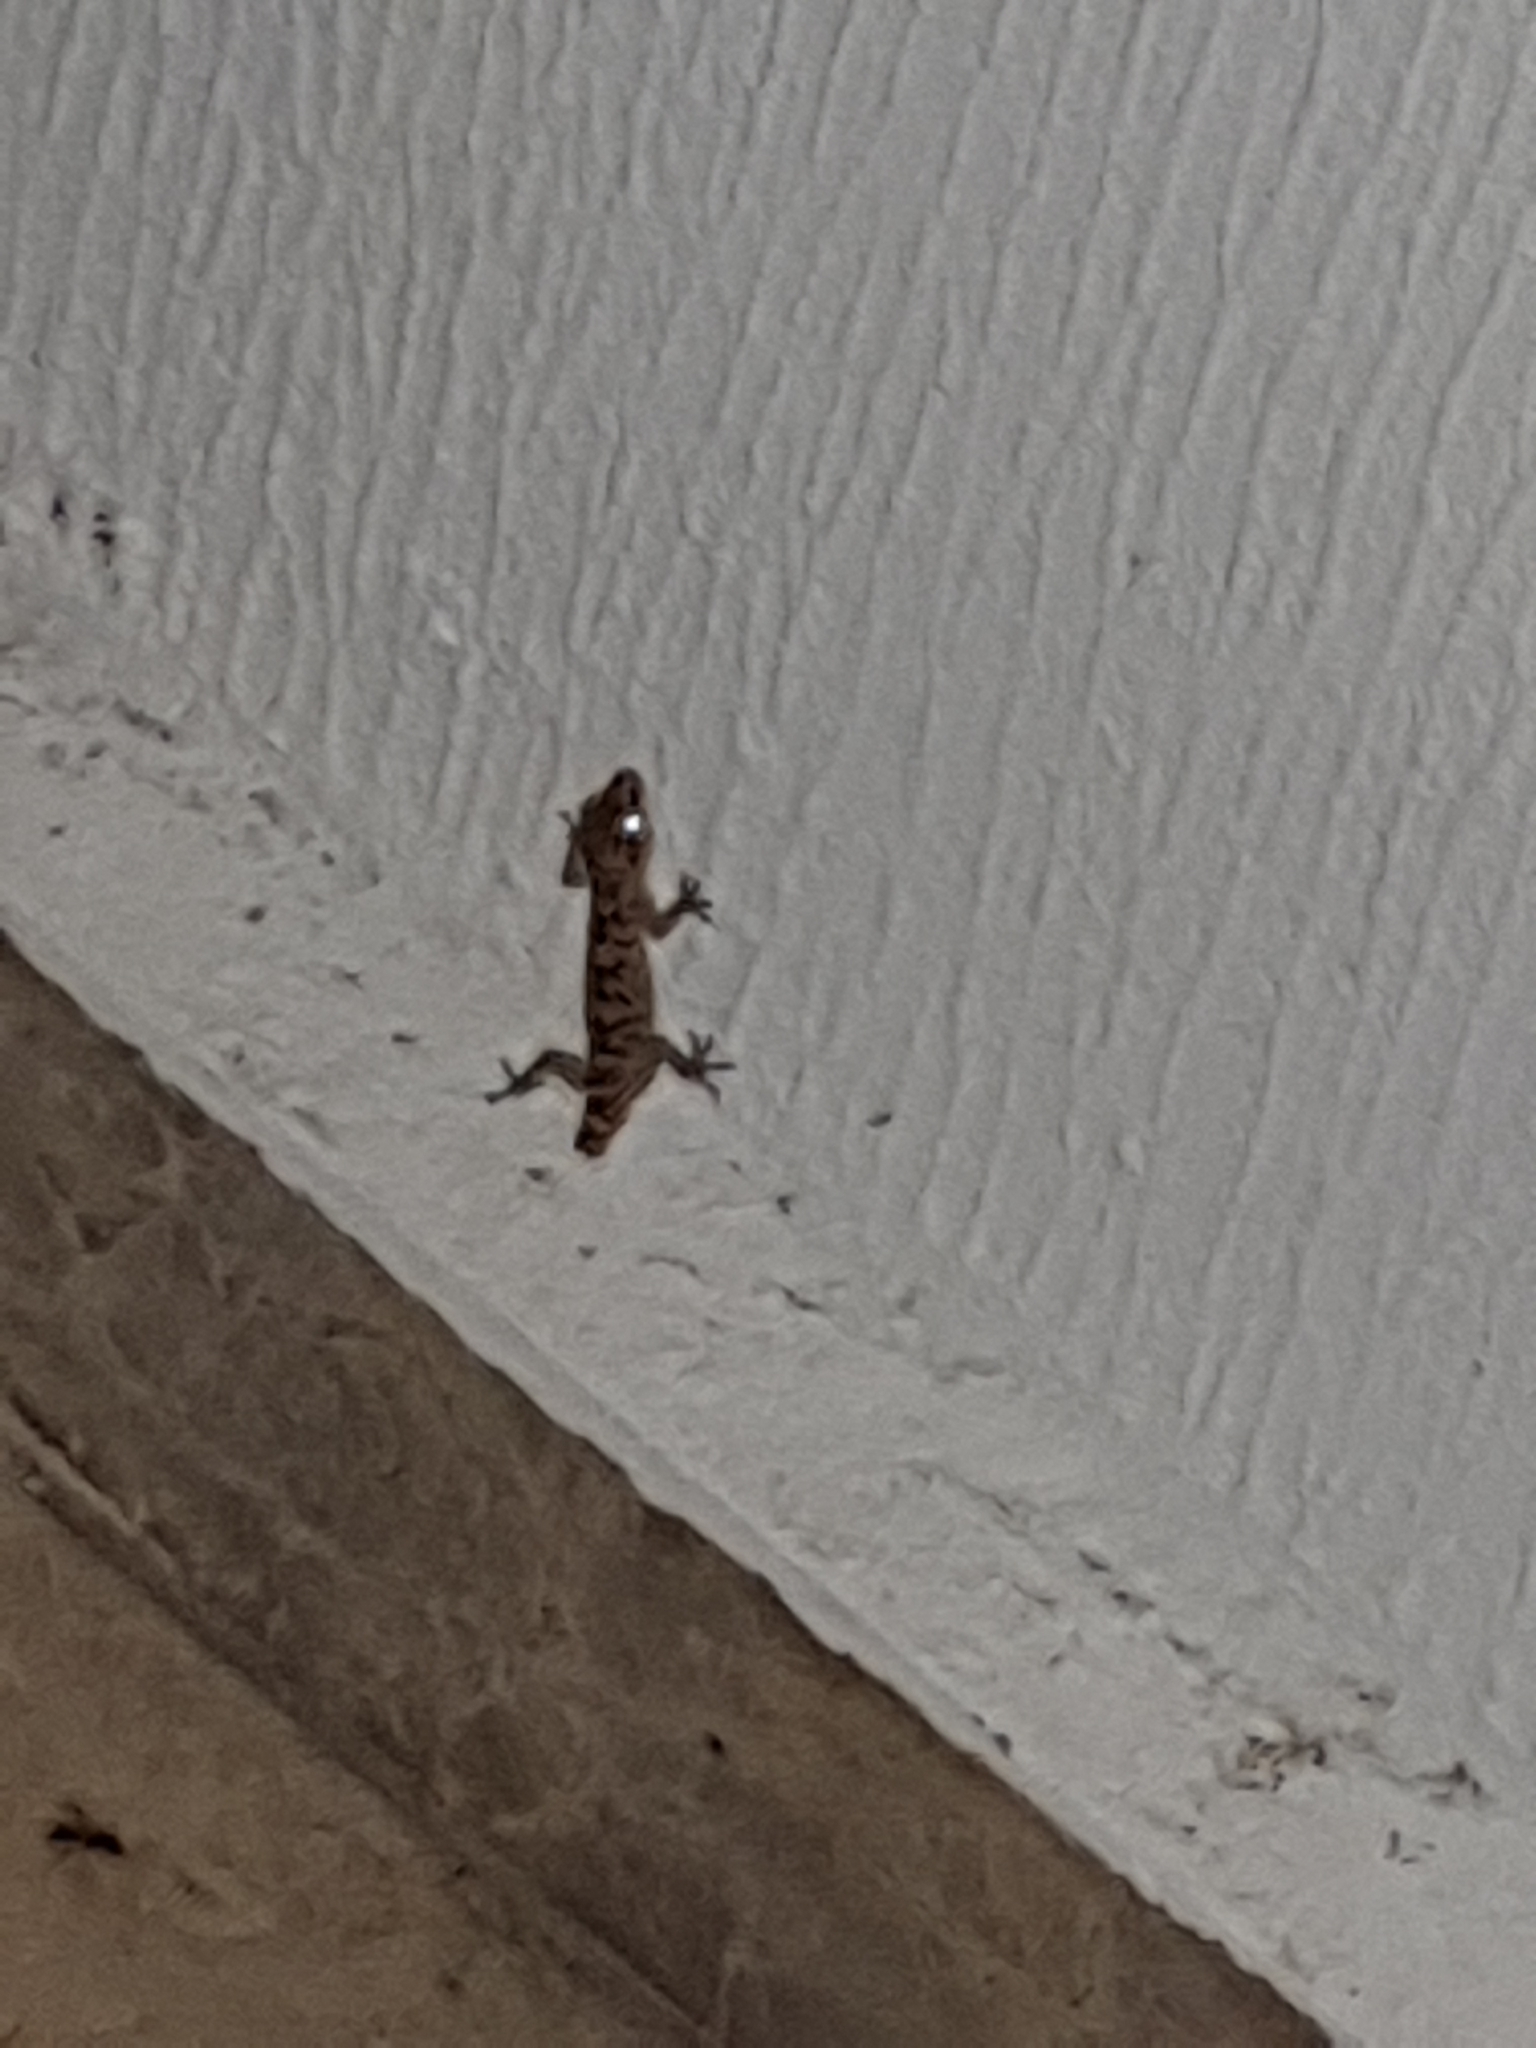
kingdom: Animalia
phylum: Chordata
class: Squamata
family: Gekkonidae
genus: Hemidactylus
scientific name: Hemidactylus turcicus
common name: Turkish gecko
